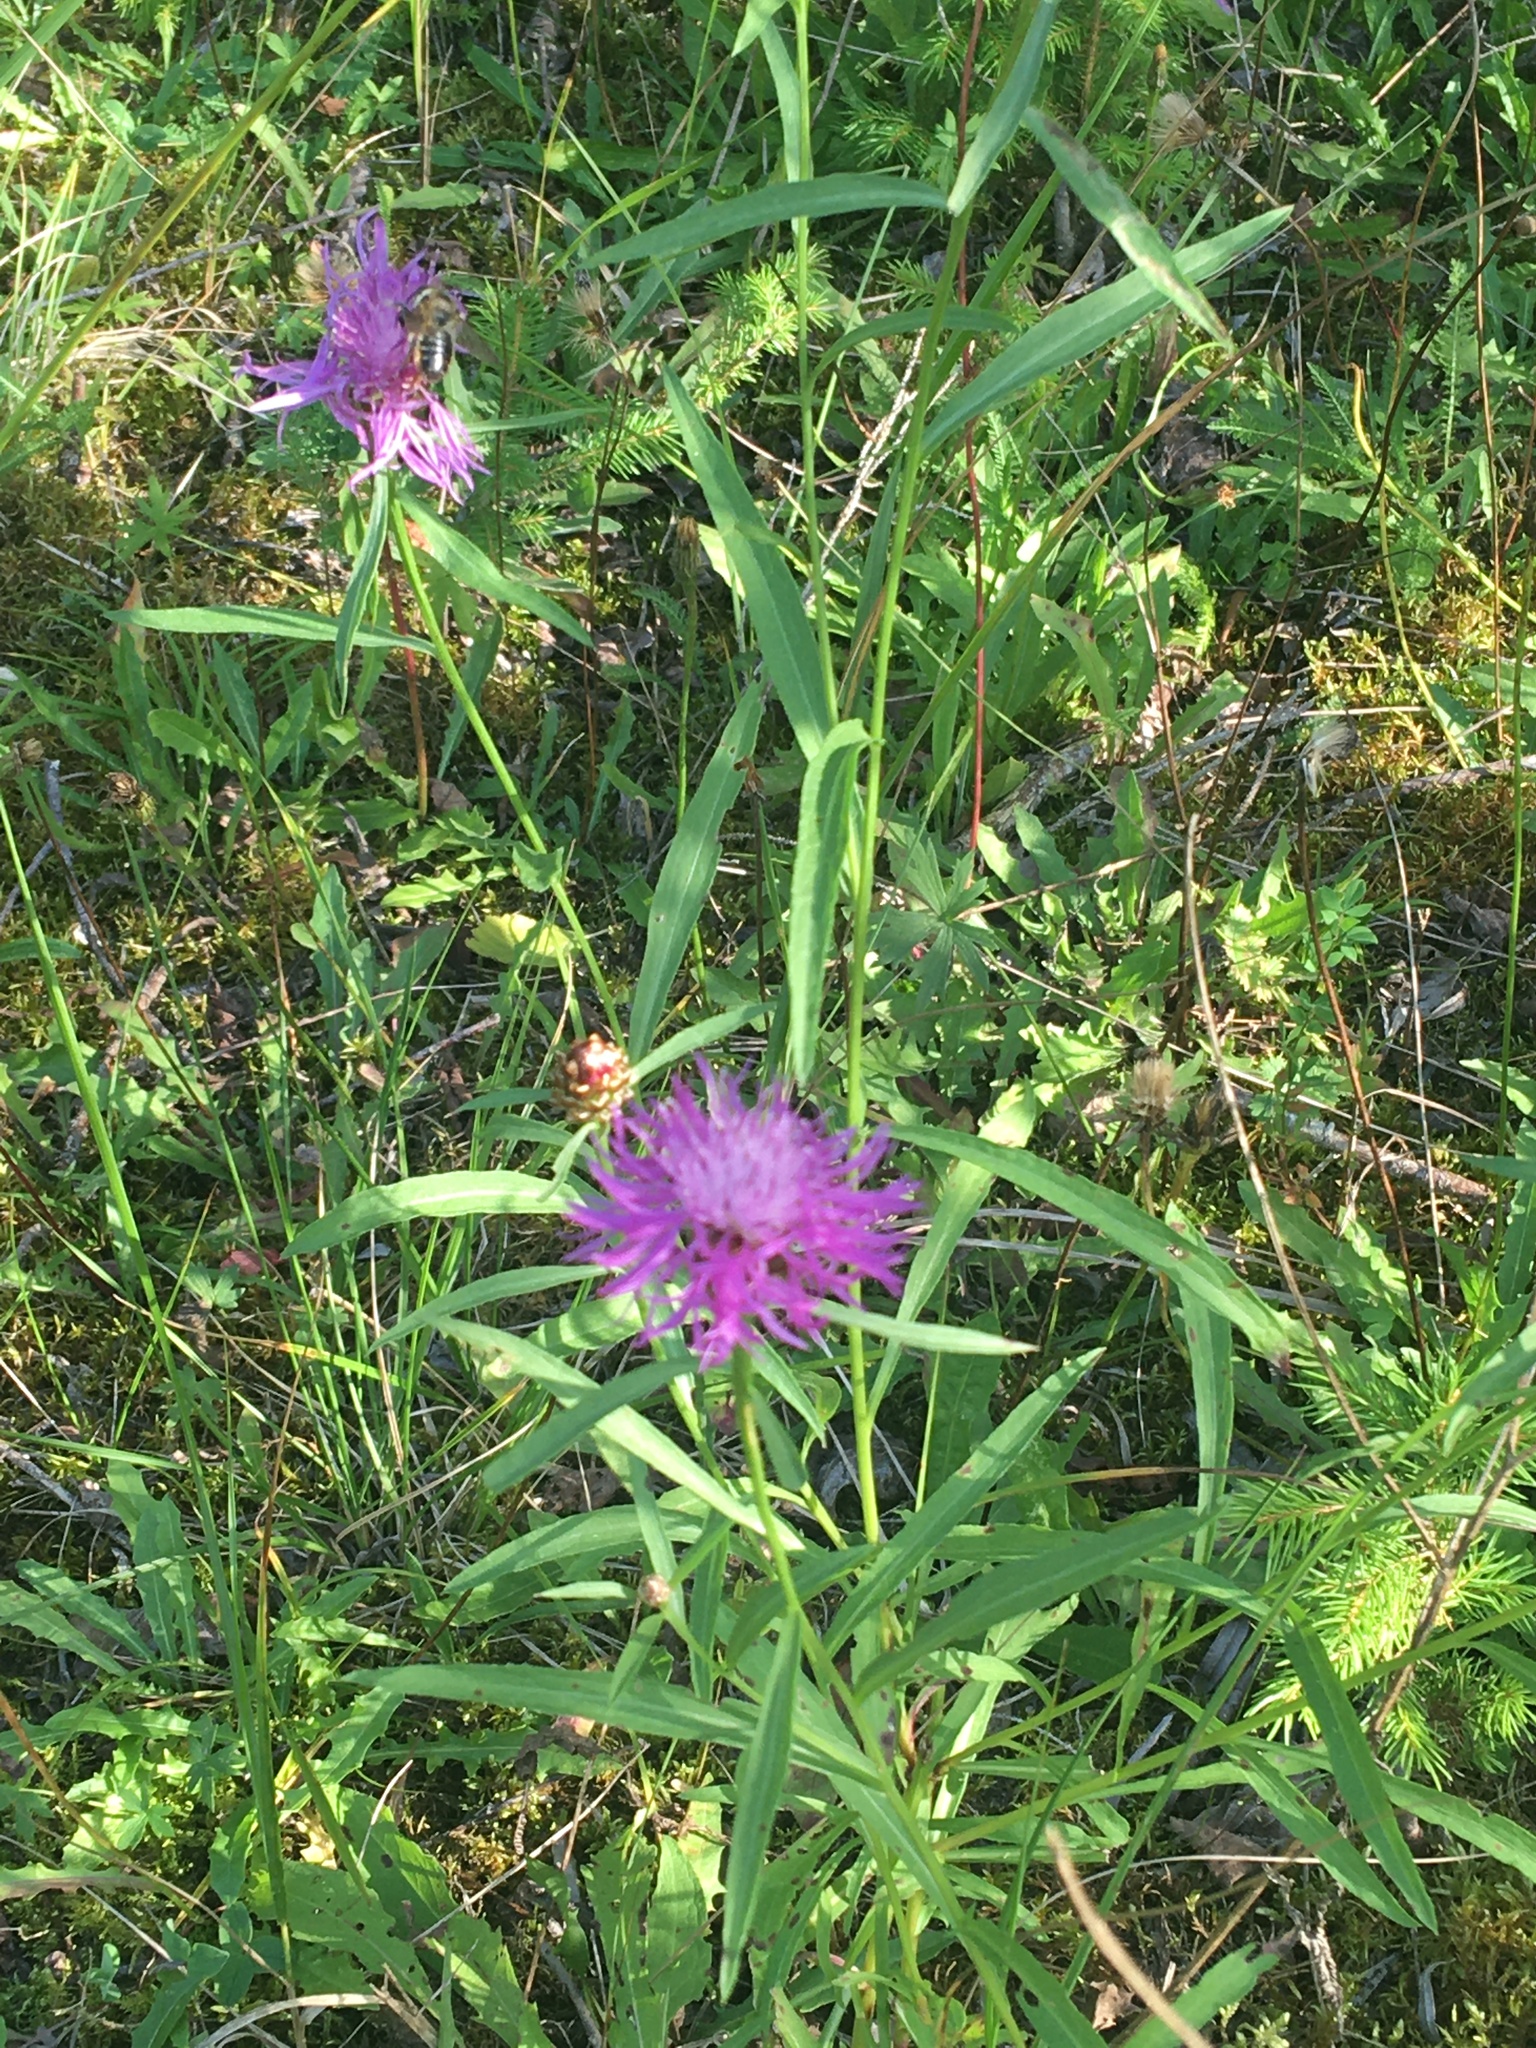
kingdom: Plantae
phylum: Tracheophyta
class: Magnoliopsida
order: Asterales
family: Asteraceae
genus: Centaurea
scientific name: Centaurea jacea
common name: Brown knapweed
